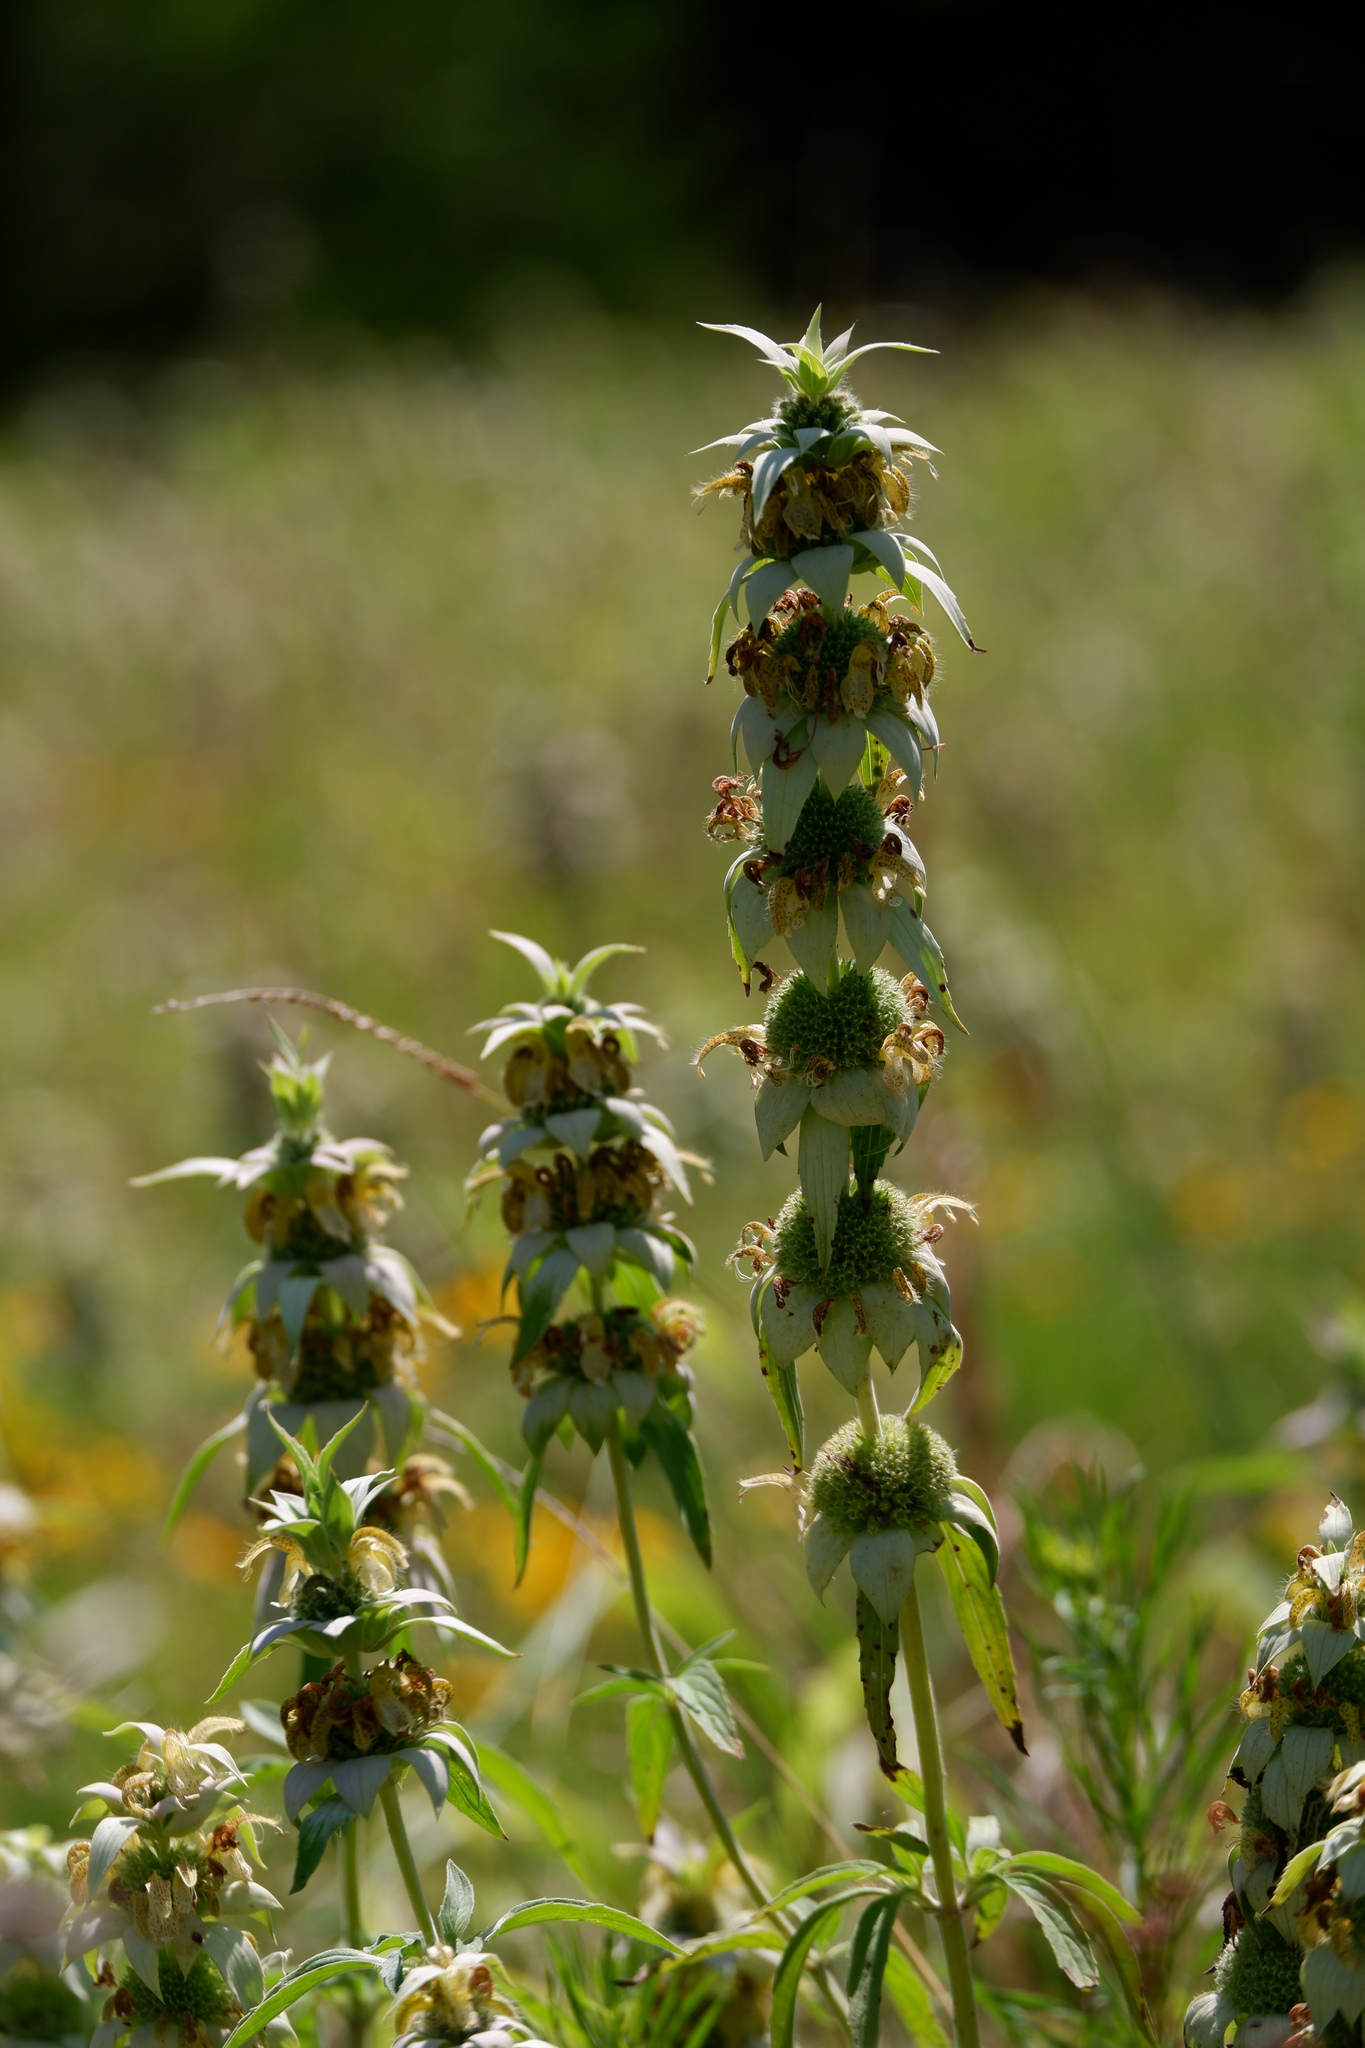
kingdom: Plantae
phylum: Tracheophyta
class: Magnoliopsida
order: Lamiales
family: Lamiaceae
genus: Monarda
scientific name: Monarda punctata
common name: Dotted monarda
